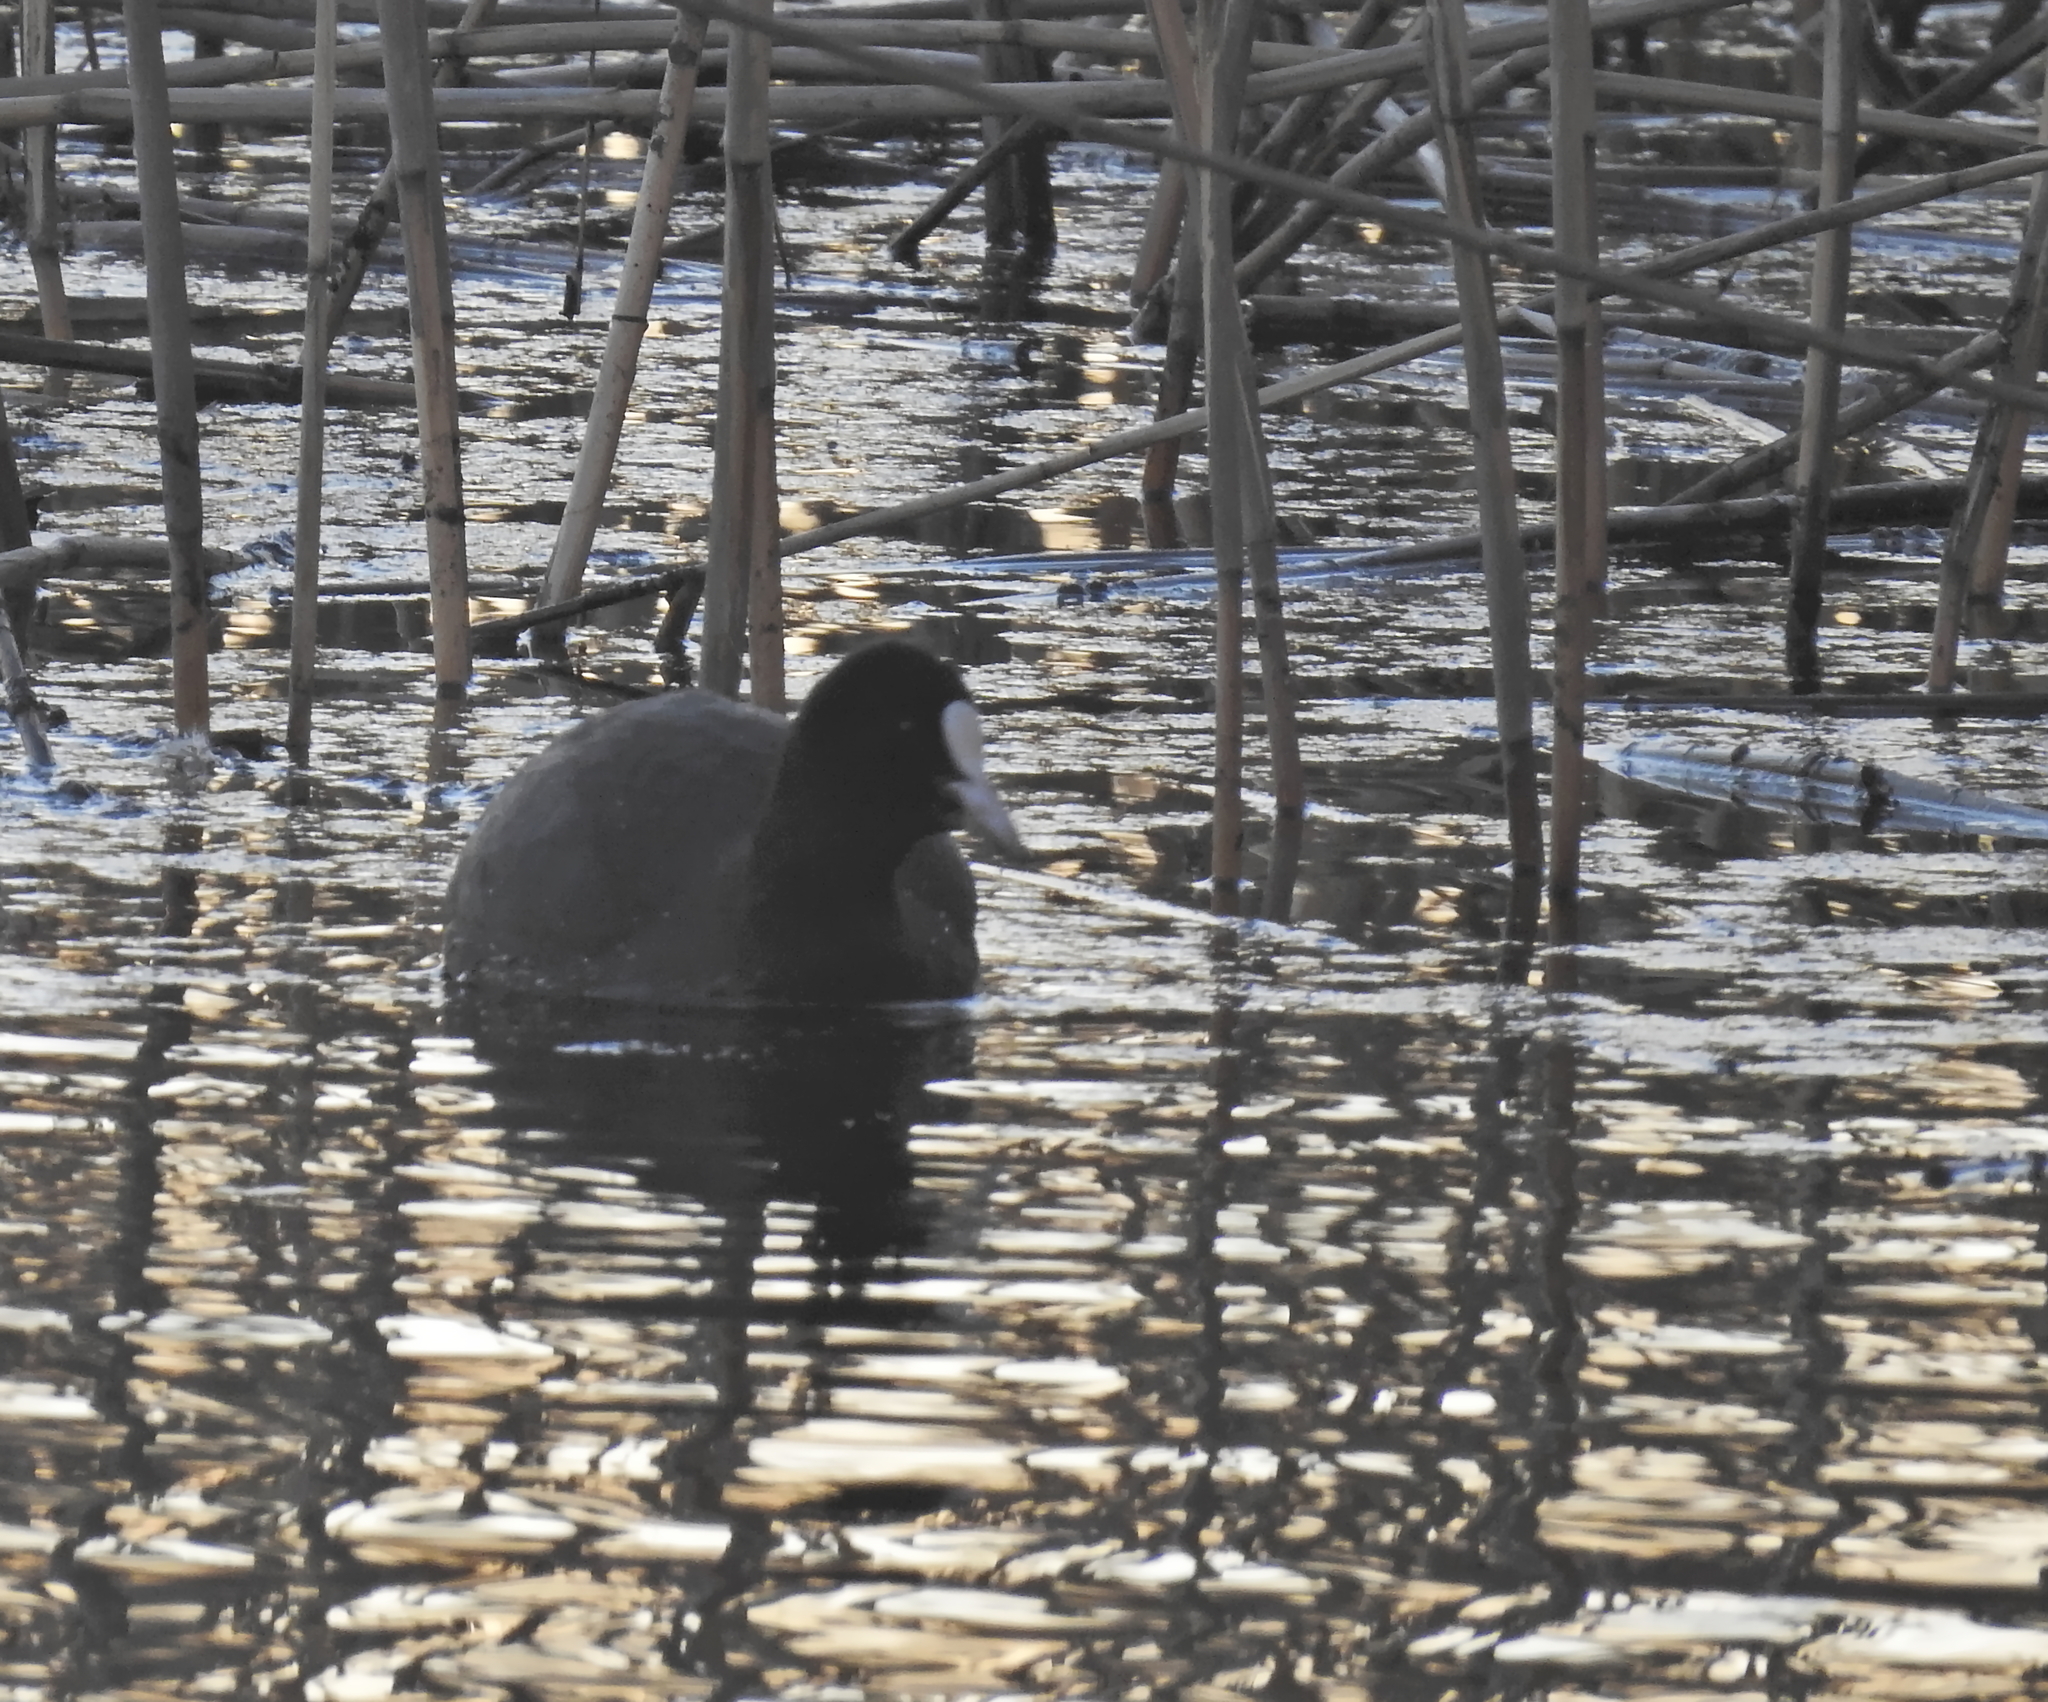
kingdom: Animalia
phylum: Chordata
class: Aves
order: Gruiformes
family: Rallidae
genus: Fulica
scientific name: Fulica atra
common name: Eurasian coot
